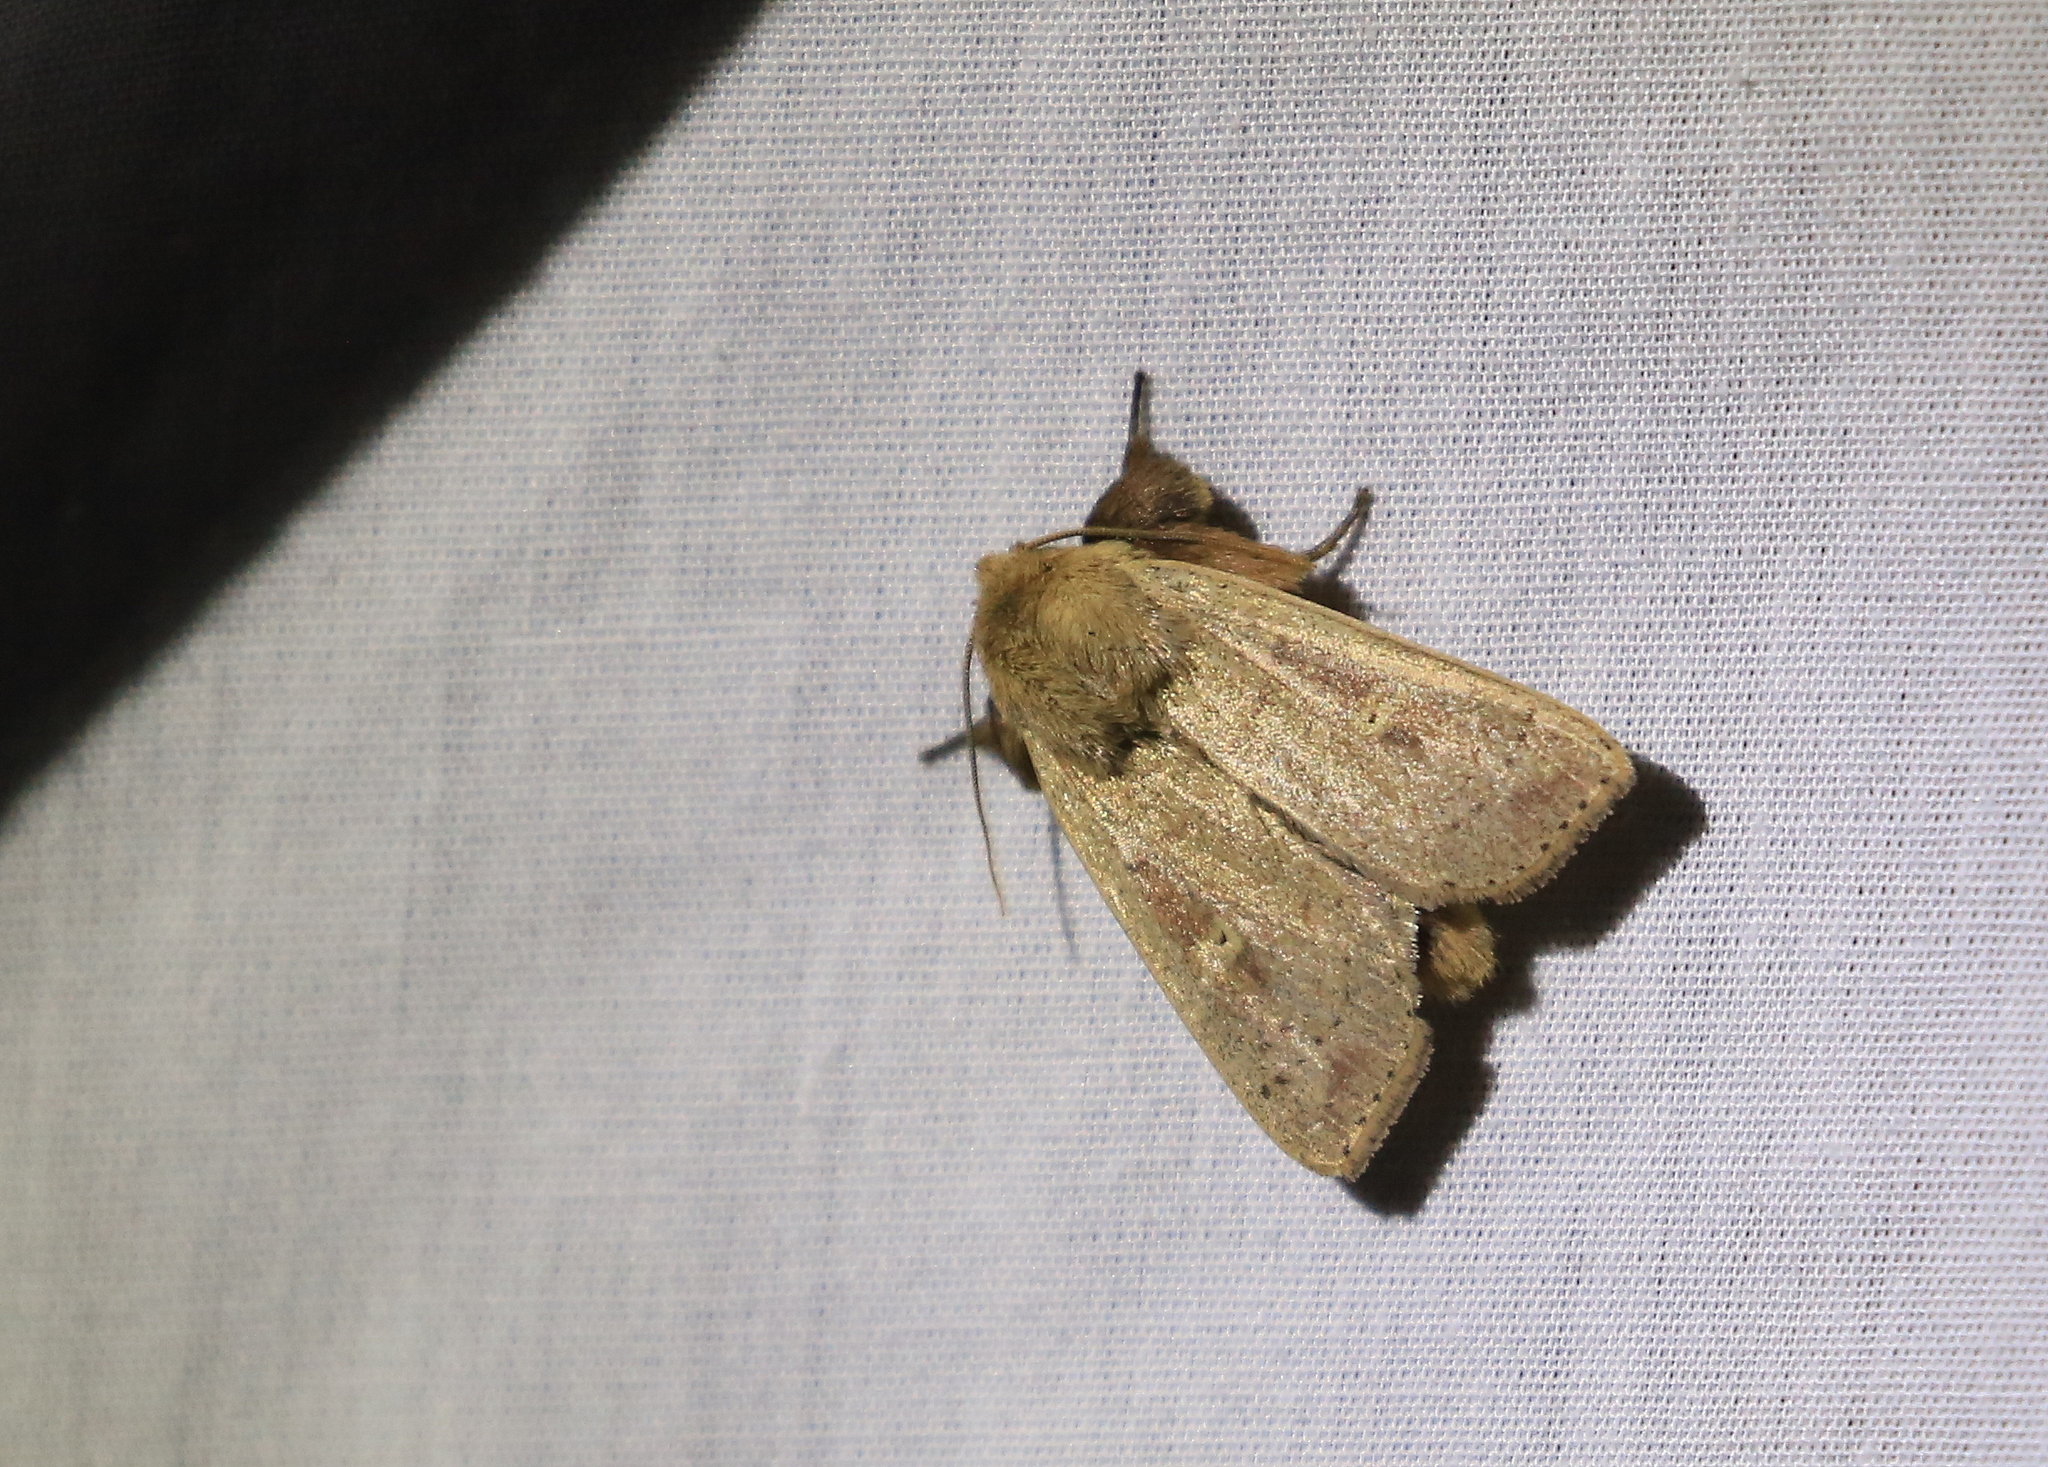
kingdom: Animalia
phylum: Arthropoda
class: Insecta
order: Lepidoptera
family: Noctuidae
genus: Leucania
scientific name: Leucania pseudargyria
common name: False wainscot
